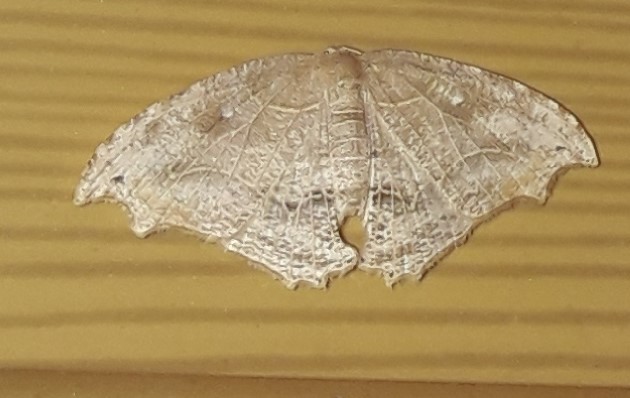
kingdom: Animalia
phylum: Arthropoda
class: Insecta
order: Lepidoptera
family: Uraniidae
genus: Coelurotricha
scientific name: Coelurotricha curvilinea
